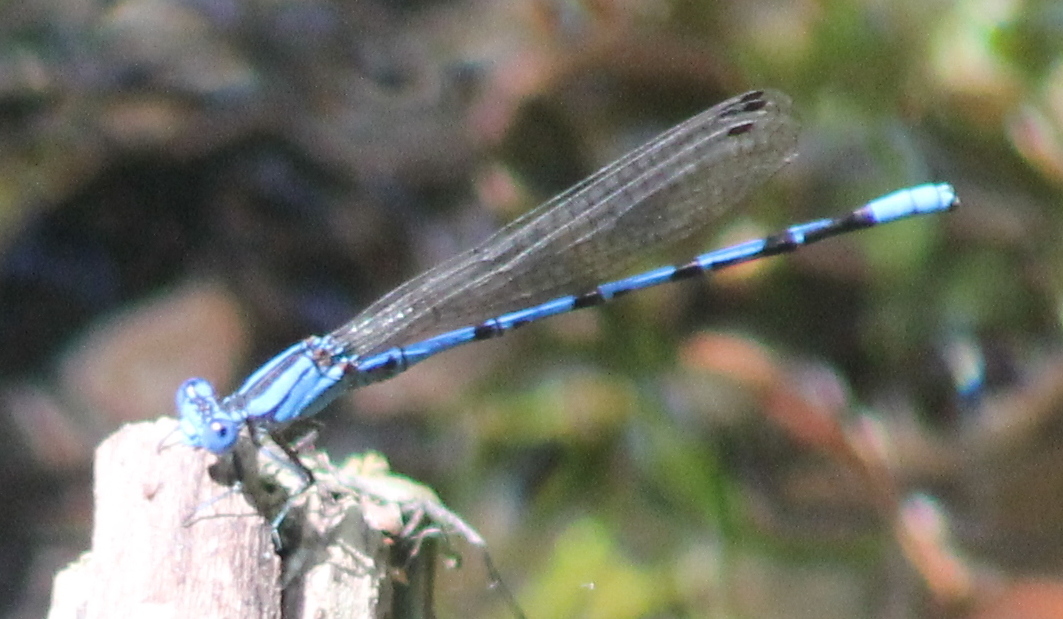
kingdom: Animalia
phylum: Arthropoda
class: Insecta
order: Odonata
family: Coenagrionidae
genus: Argia
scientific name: Argia funebris
